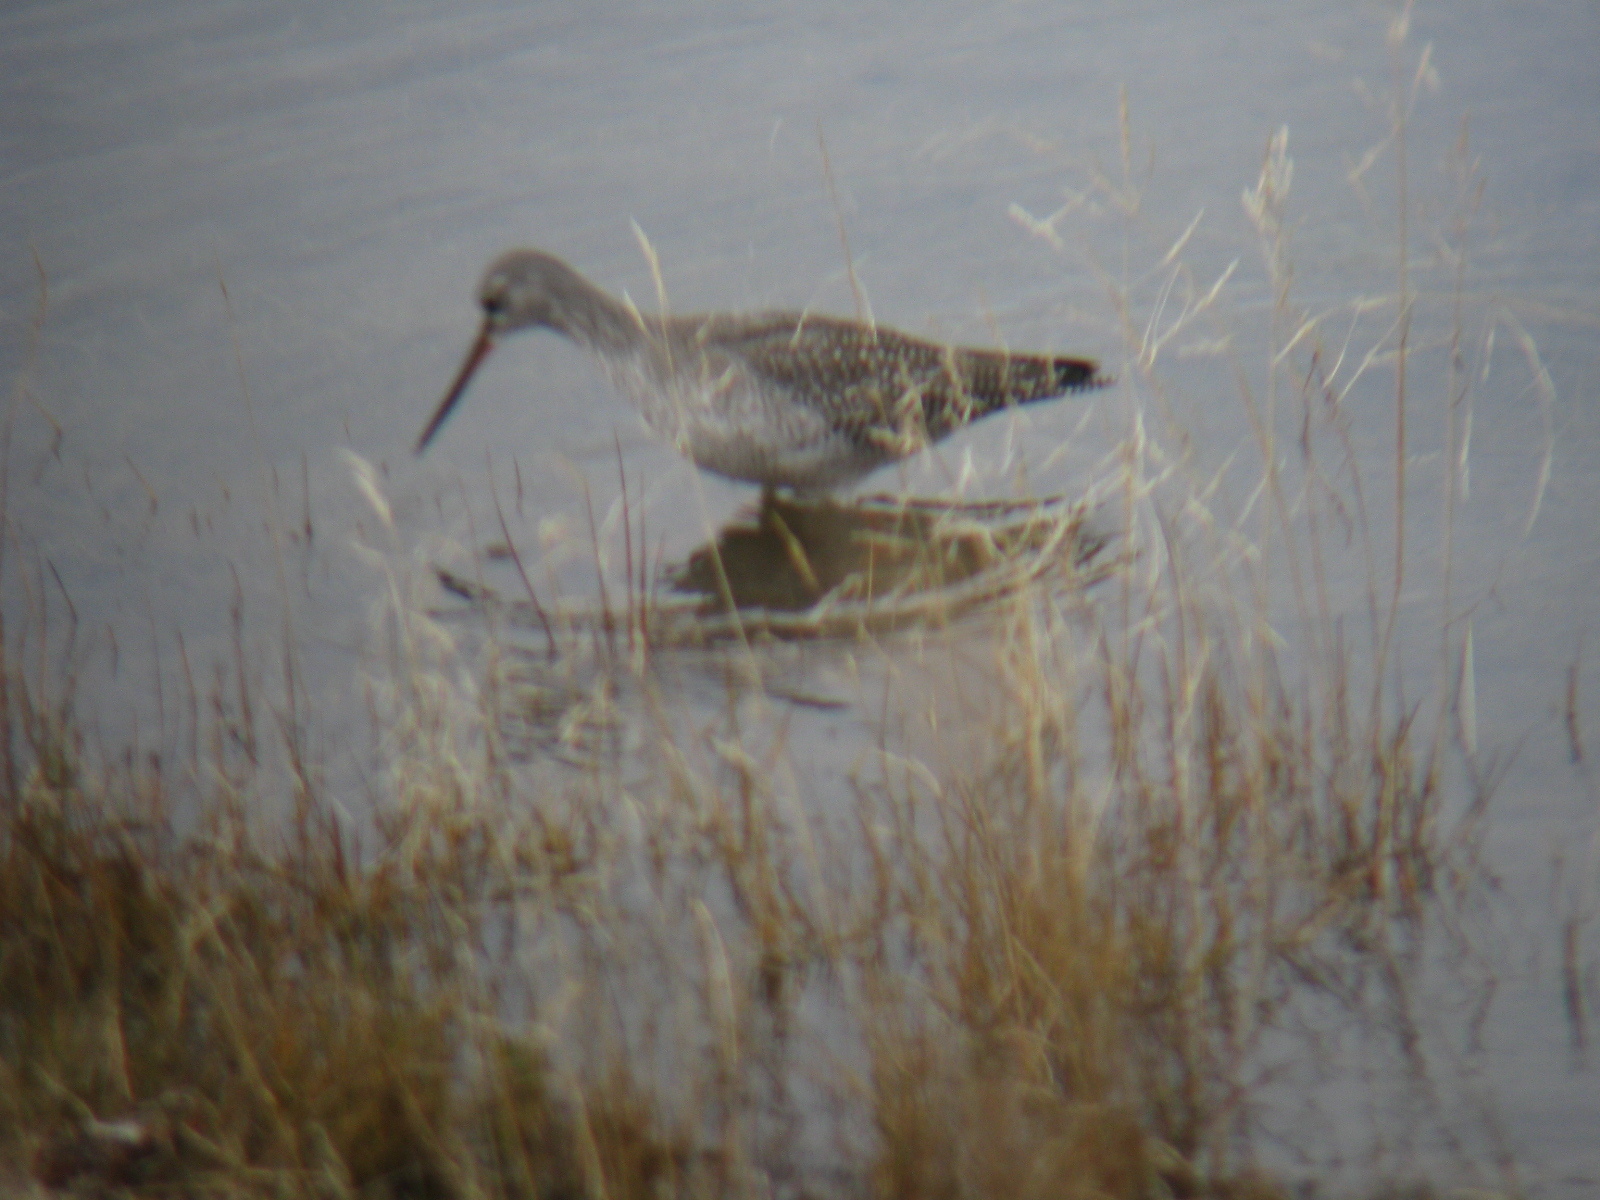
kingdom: Animalia
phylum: Chordata
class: Aves
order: Charadriiformes
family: Scolopacidae
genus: Tringa
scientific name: Tringa erythropus
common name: Spotted redshank
